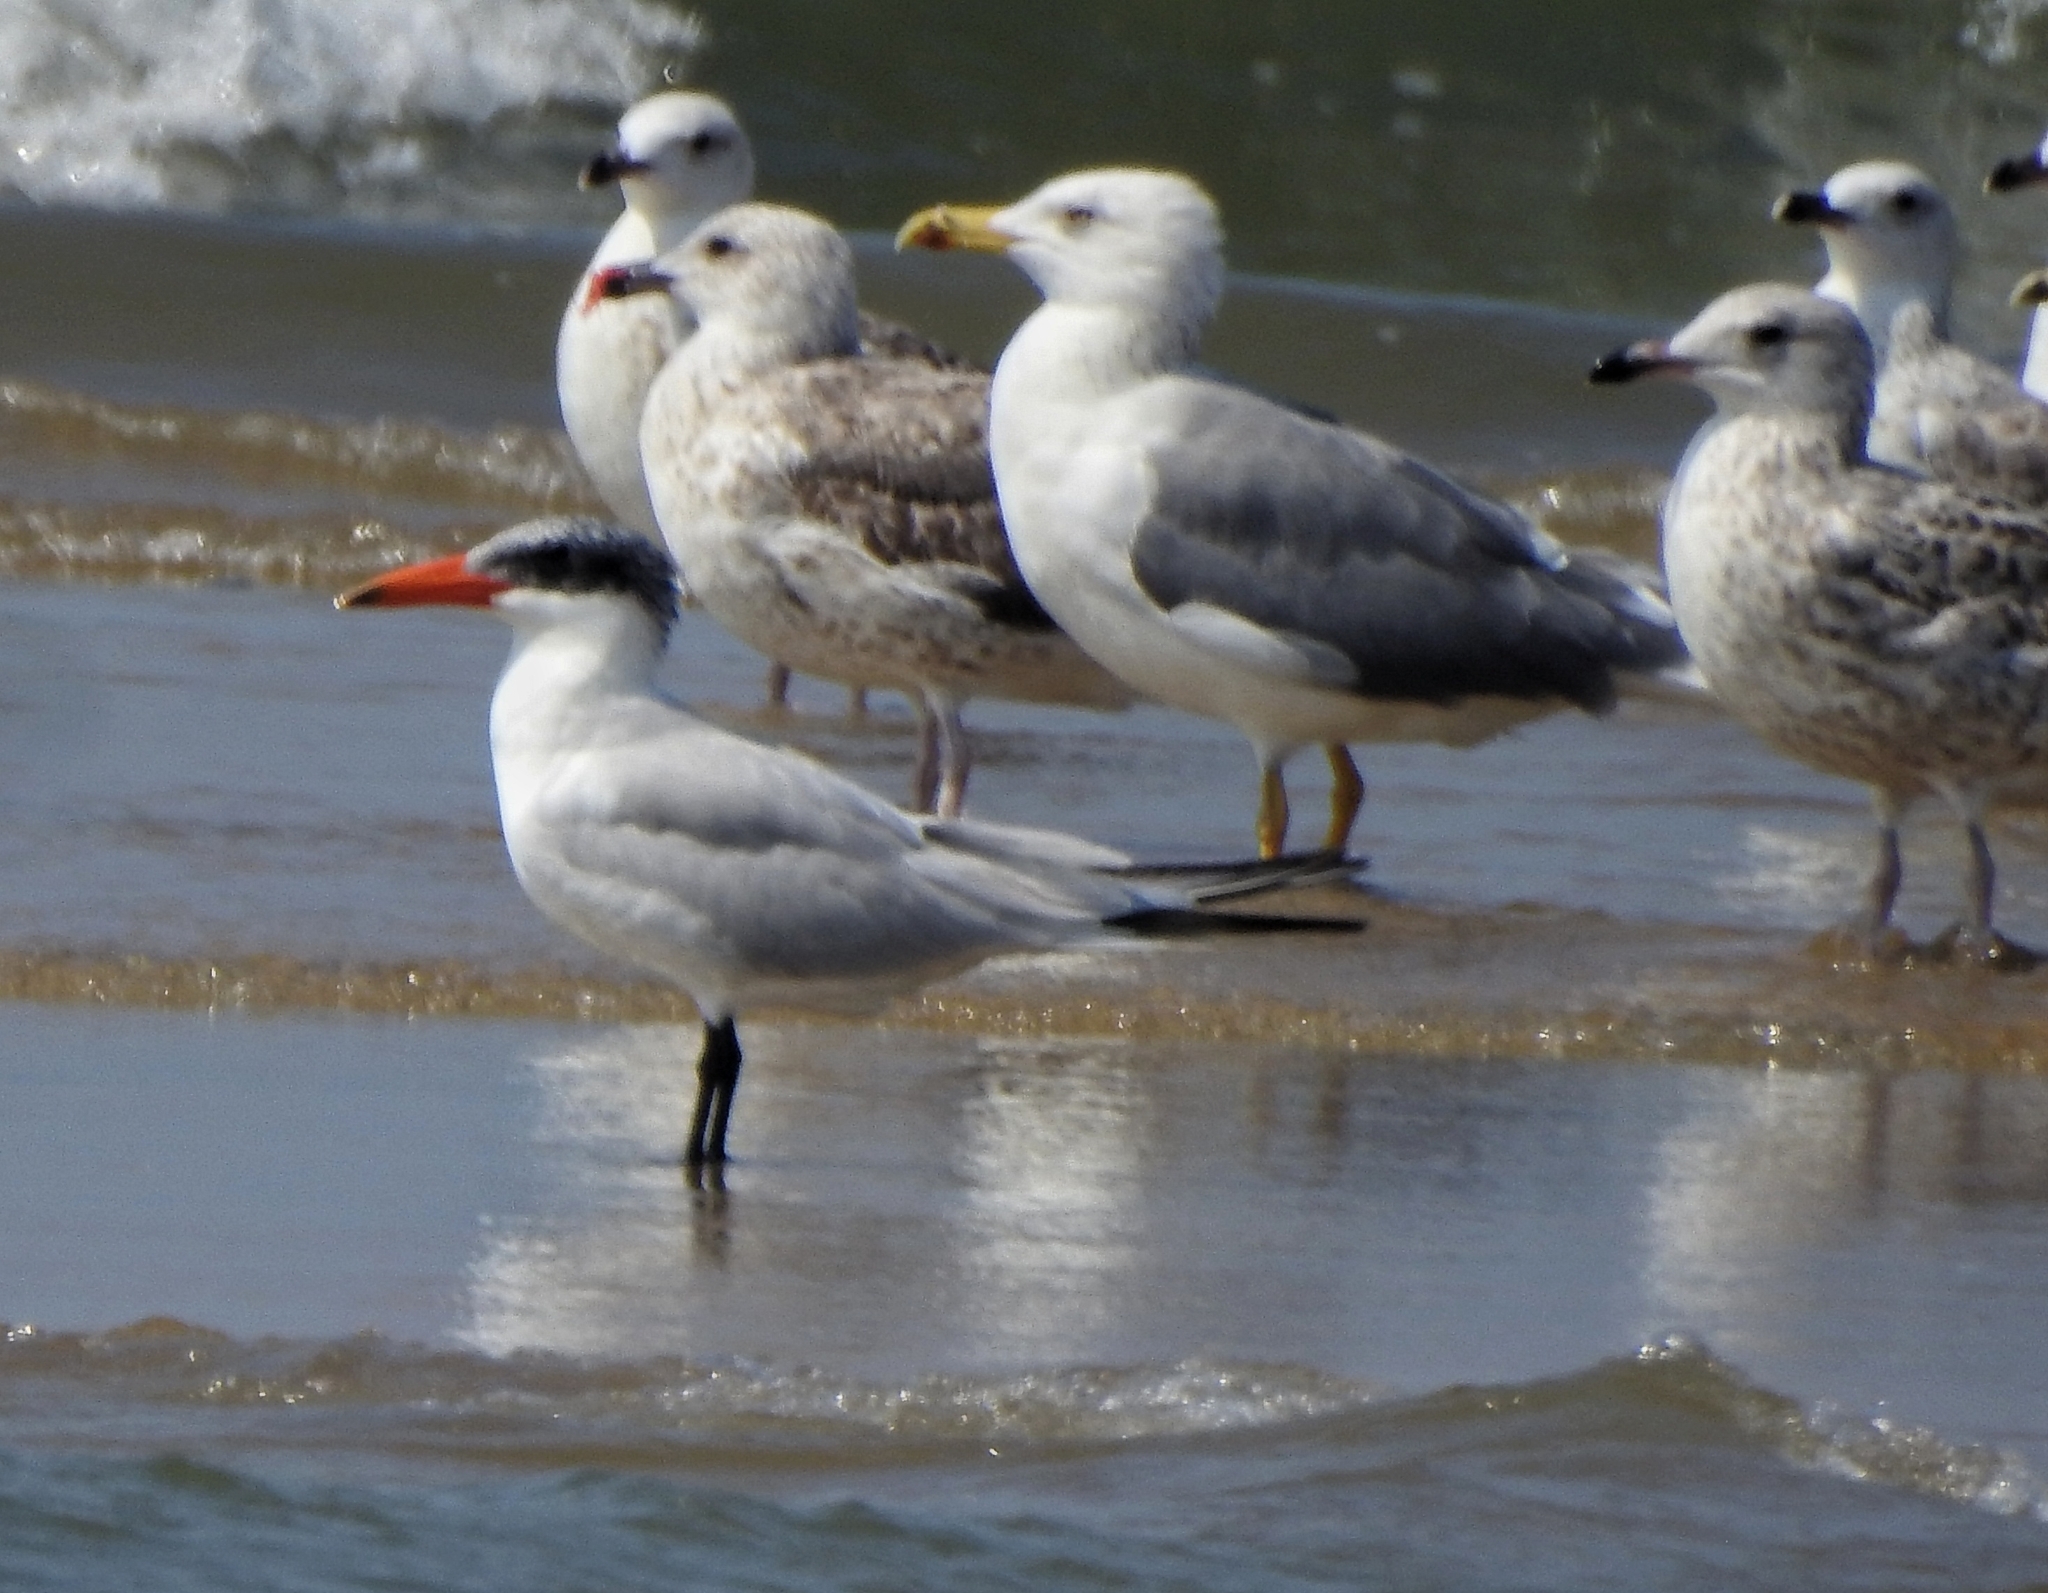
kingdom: Animalia
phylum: Chordata
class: Aves
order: Charadriiformes
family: Laridae
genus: Hydroprogne
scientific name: Hydroprogne caspia
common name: Caspian tern
